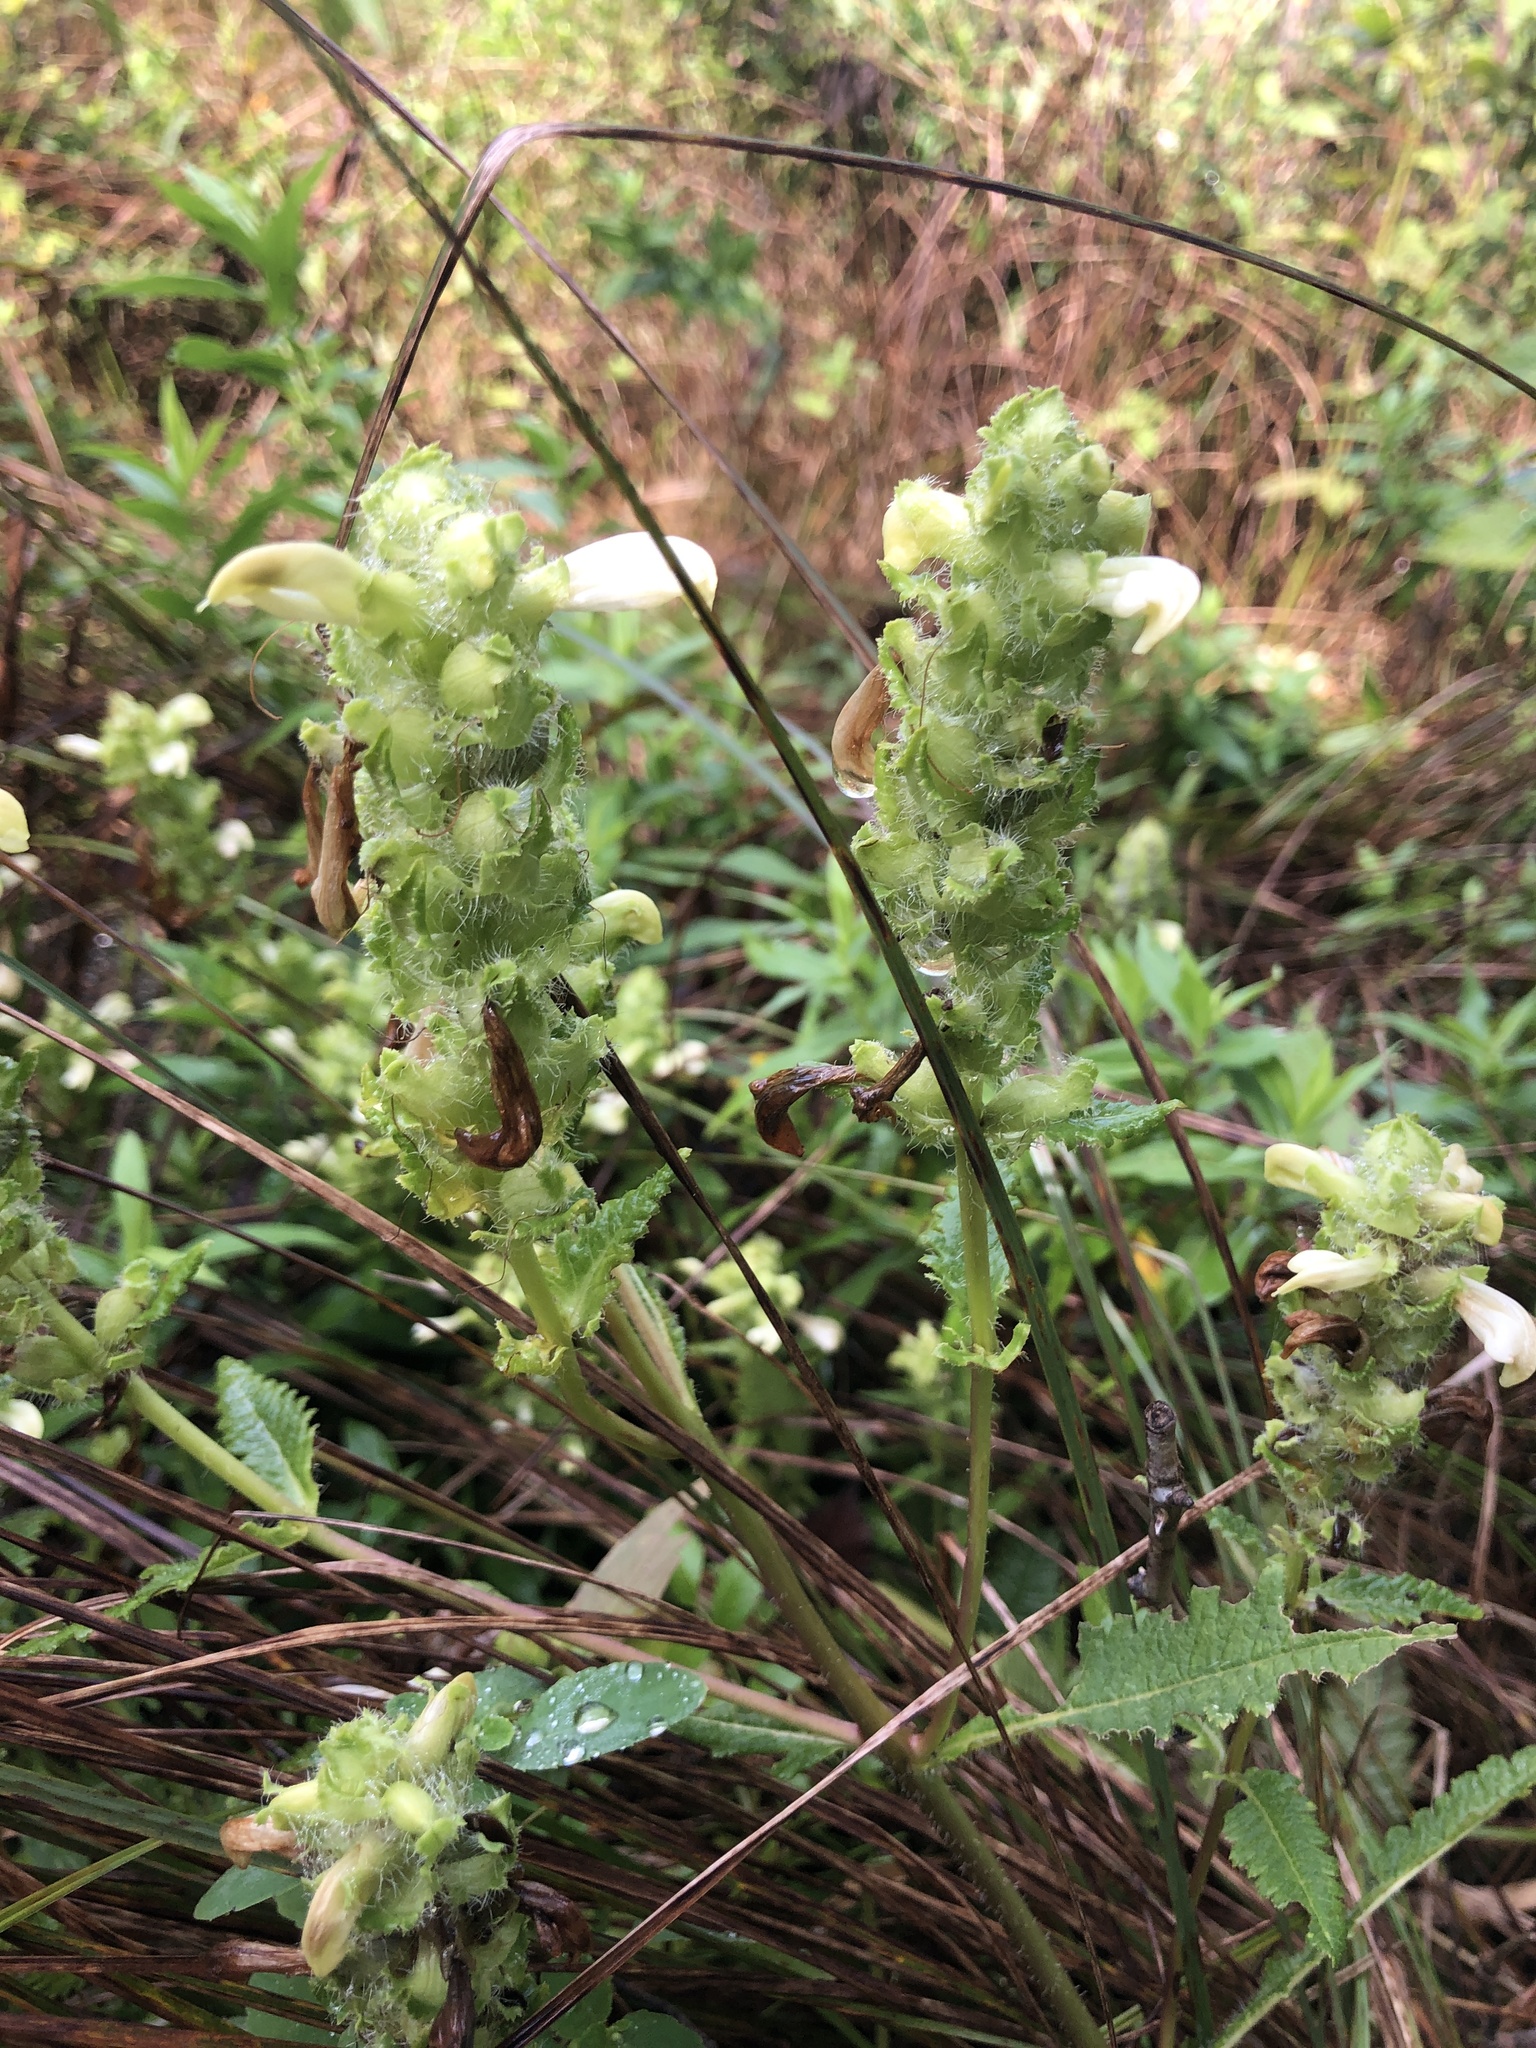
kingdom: Plantae
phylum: Tracheophyta
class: Magnoliopsida
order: Lamiales
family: Orobanchaceae
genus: Pedicularis
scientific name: Pedicularis lanceolata
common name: Swamp lousewort
